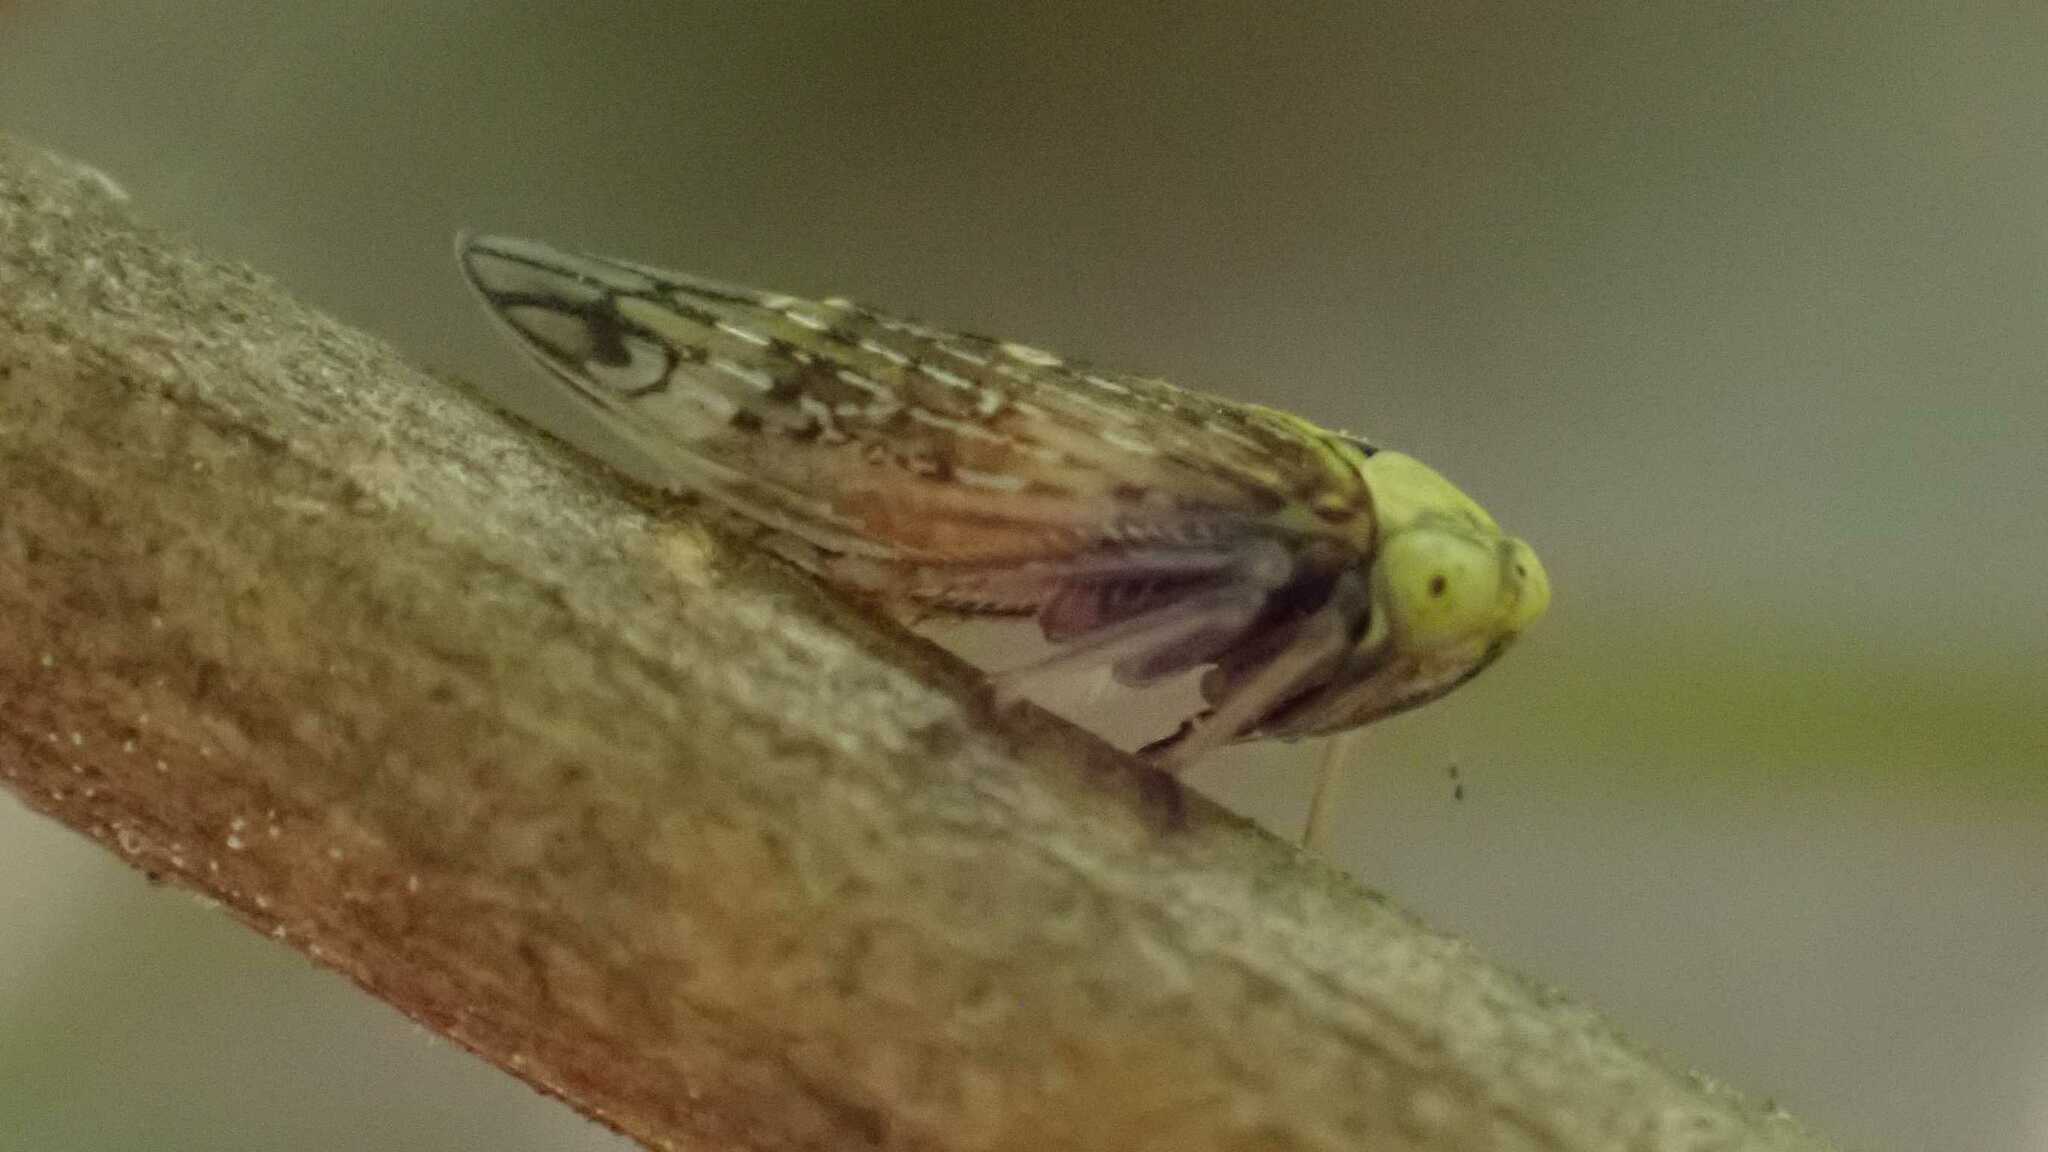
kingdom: Animalia
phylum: Arthropoda
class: Insecta
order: Hemiptera
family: Cicadellidae
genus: Acericerus
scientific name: Acericerus ribauti
